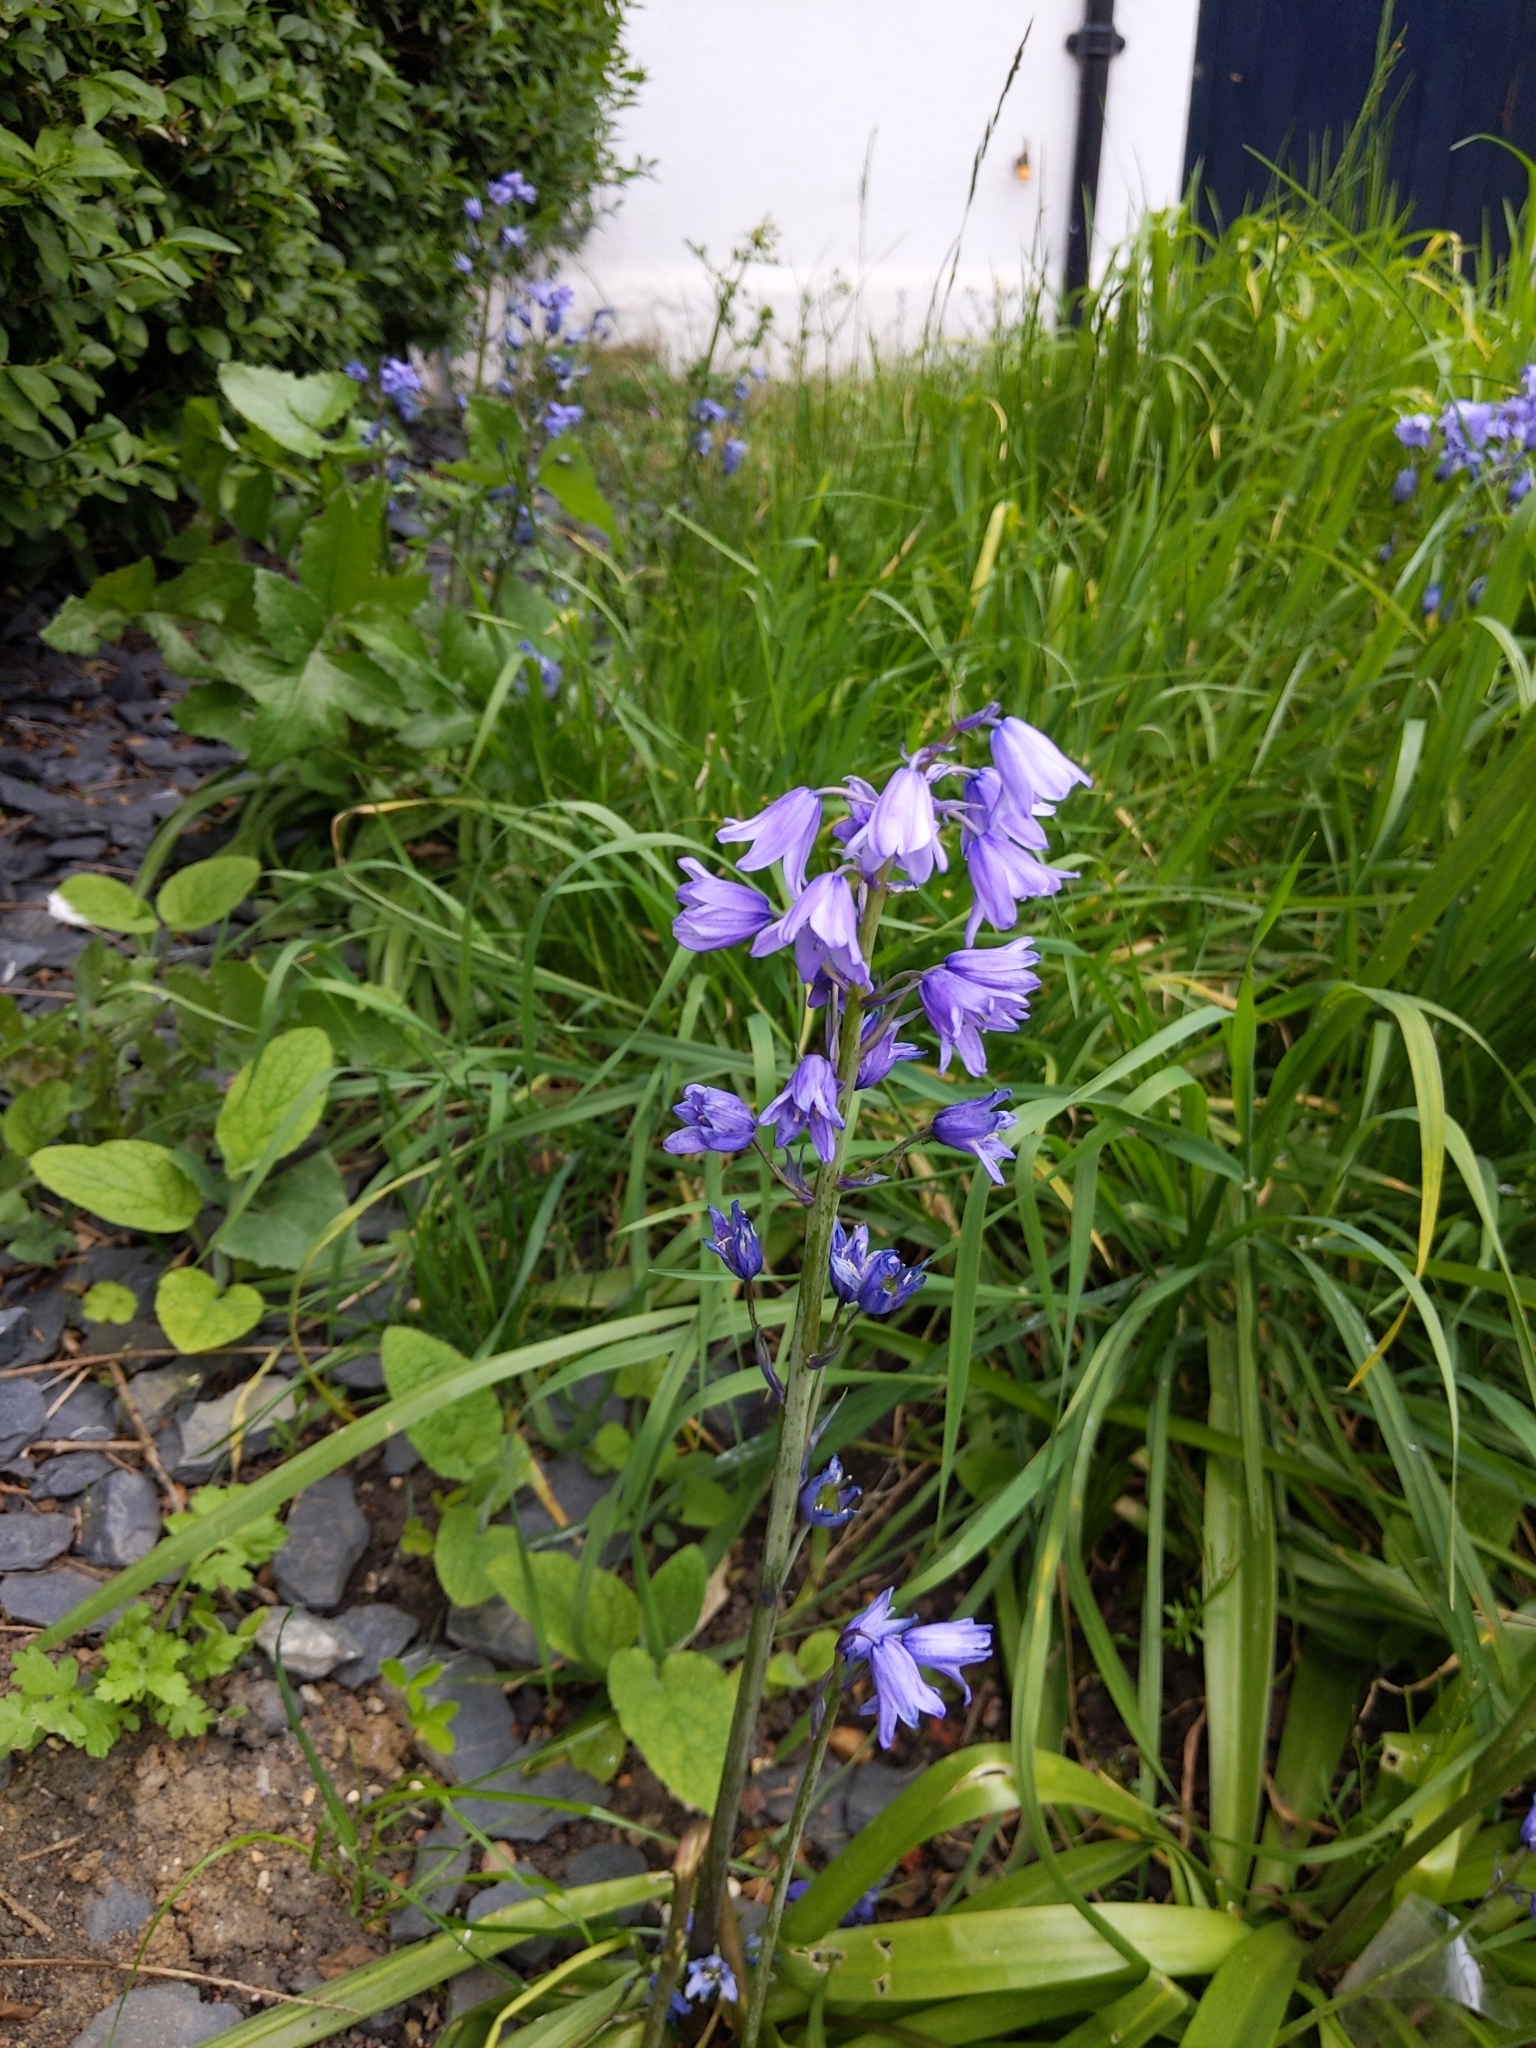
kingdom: Plantae
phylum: Tracheophyta
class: Liliopsida
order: Asparagales
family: Asparagaceae
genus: Hyacinthoides
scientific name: Hyacinthoides hispanica
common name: Spanish bluebell
